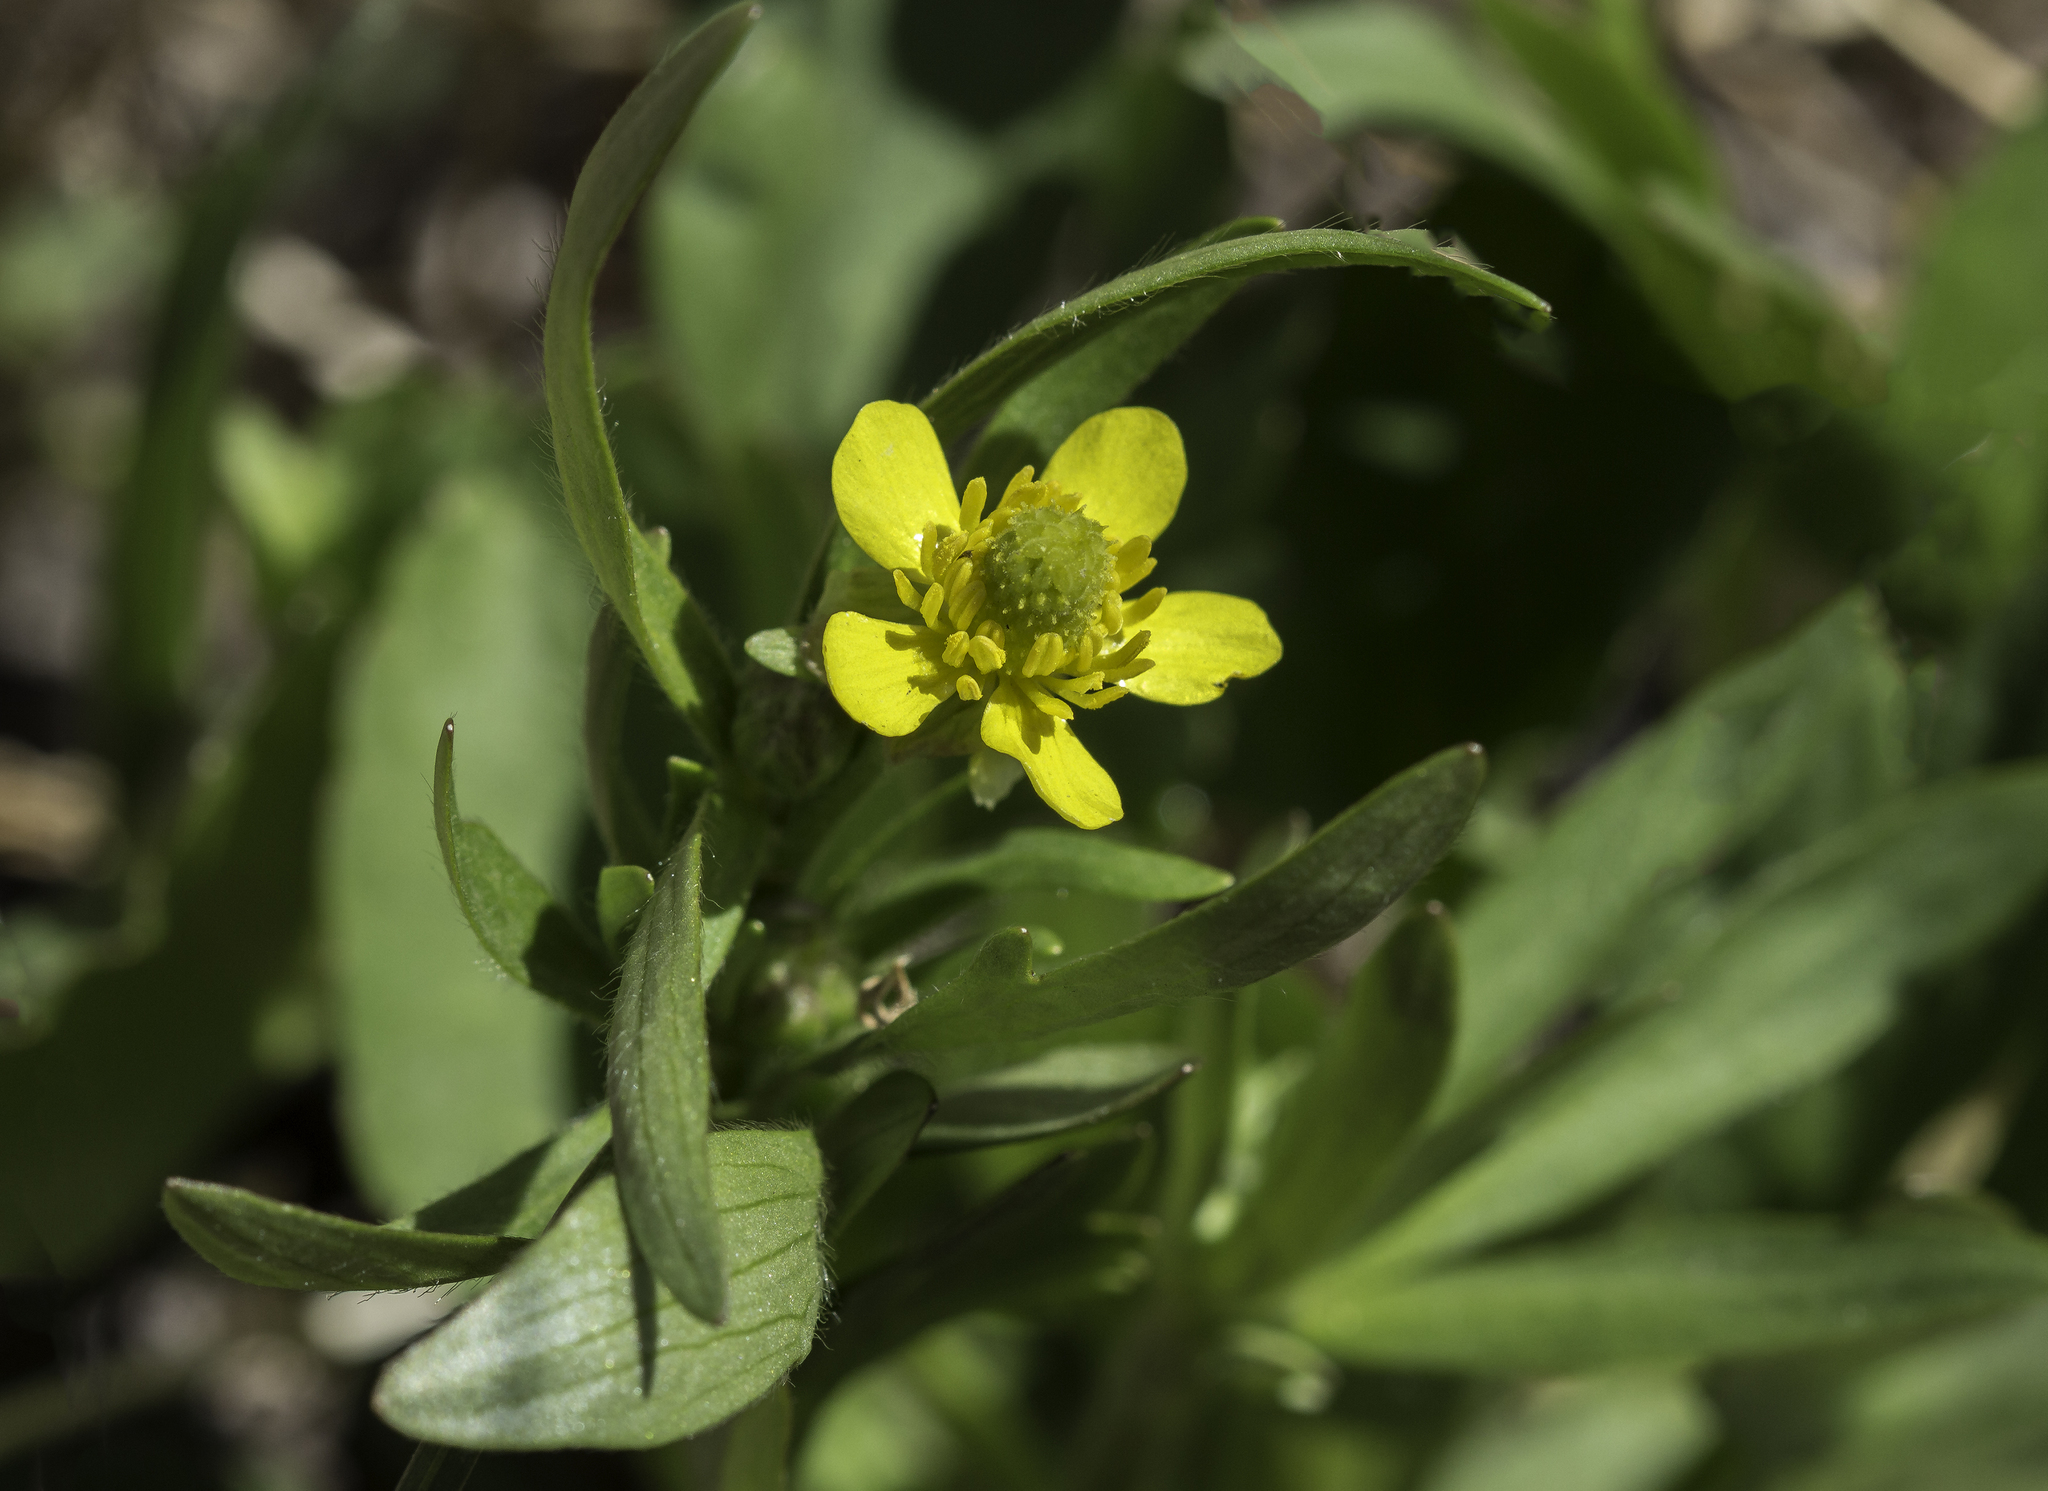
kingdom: Plantae
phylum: Tracheophyta
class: Magnoliopsida
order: Ranunculales
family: Ranunculaceae
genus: Ranunculus
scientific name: Ranunculus inamoenus
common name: Graceful buttercup
